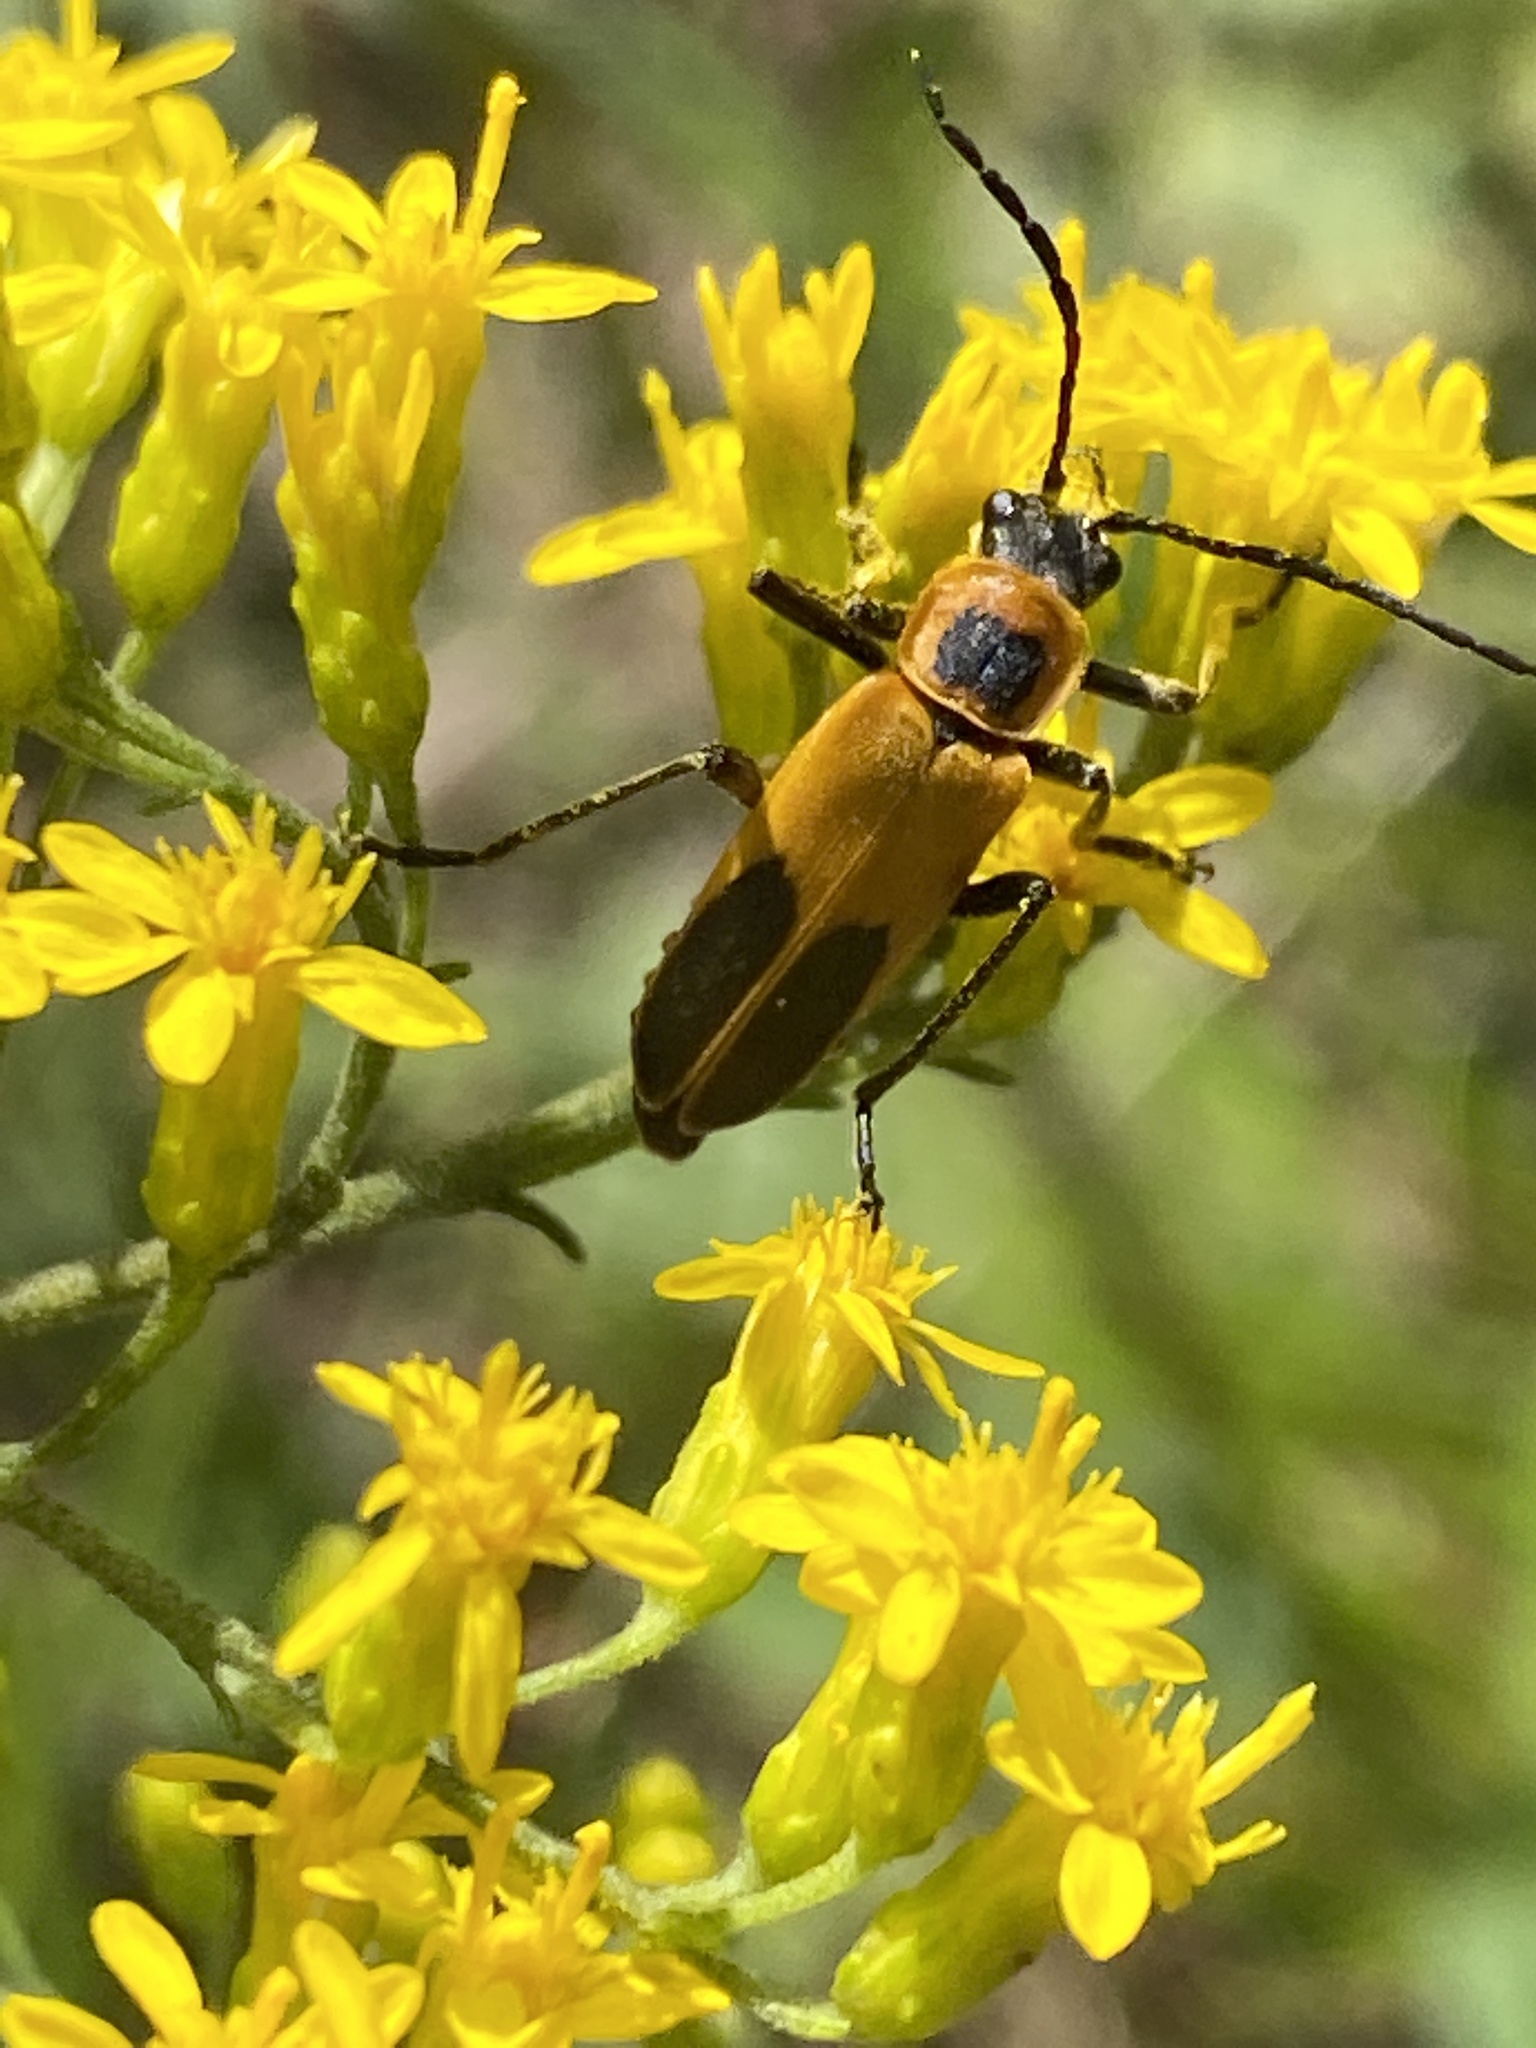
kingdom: Animalia
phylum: Arthropoda
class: Insecta
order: Coleoptera
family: Cantharidae
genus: Chauliognathus
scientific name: Chauliognathus pensylvanicus
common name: Goldenrod soldier beetle
